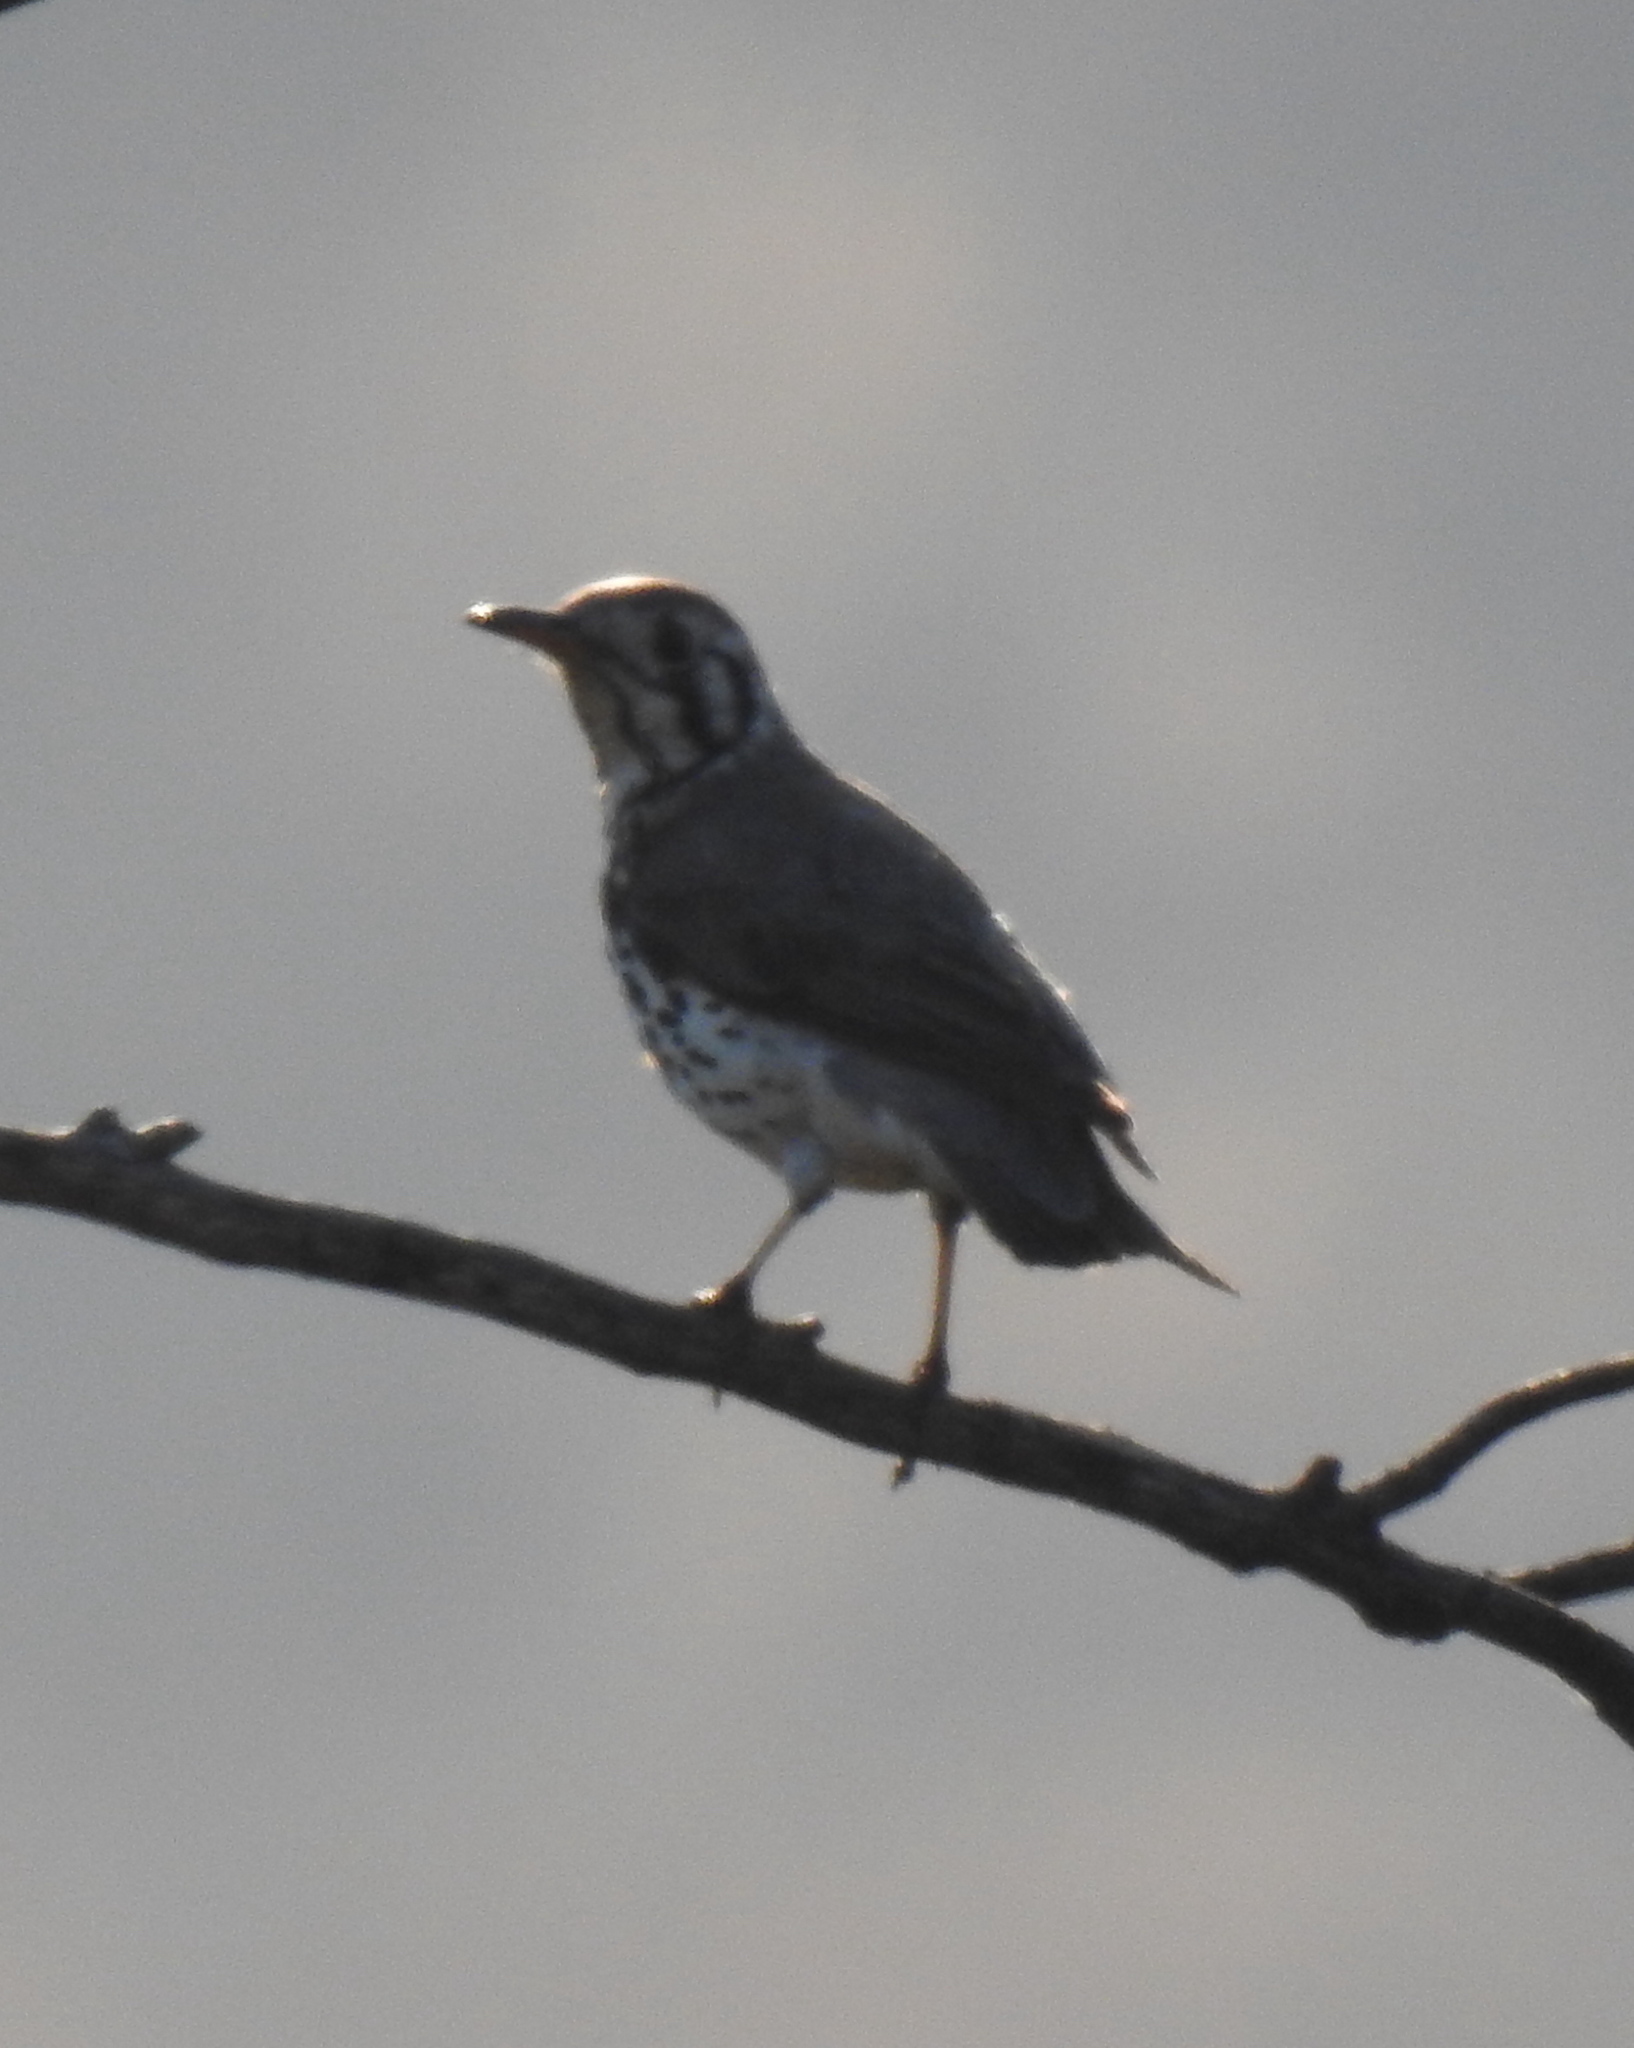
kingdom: Animalia
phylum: Chordata
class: Aves
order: Passeriformes
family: Turdidae
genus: Psophocichla
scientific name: Psophocichla litsitsirupa
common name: Groundscraper thrush
